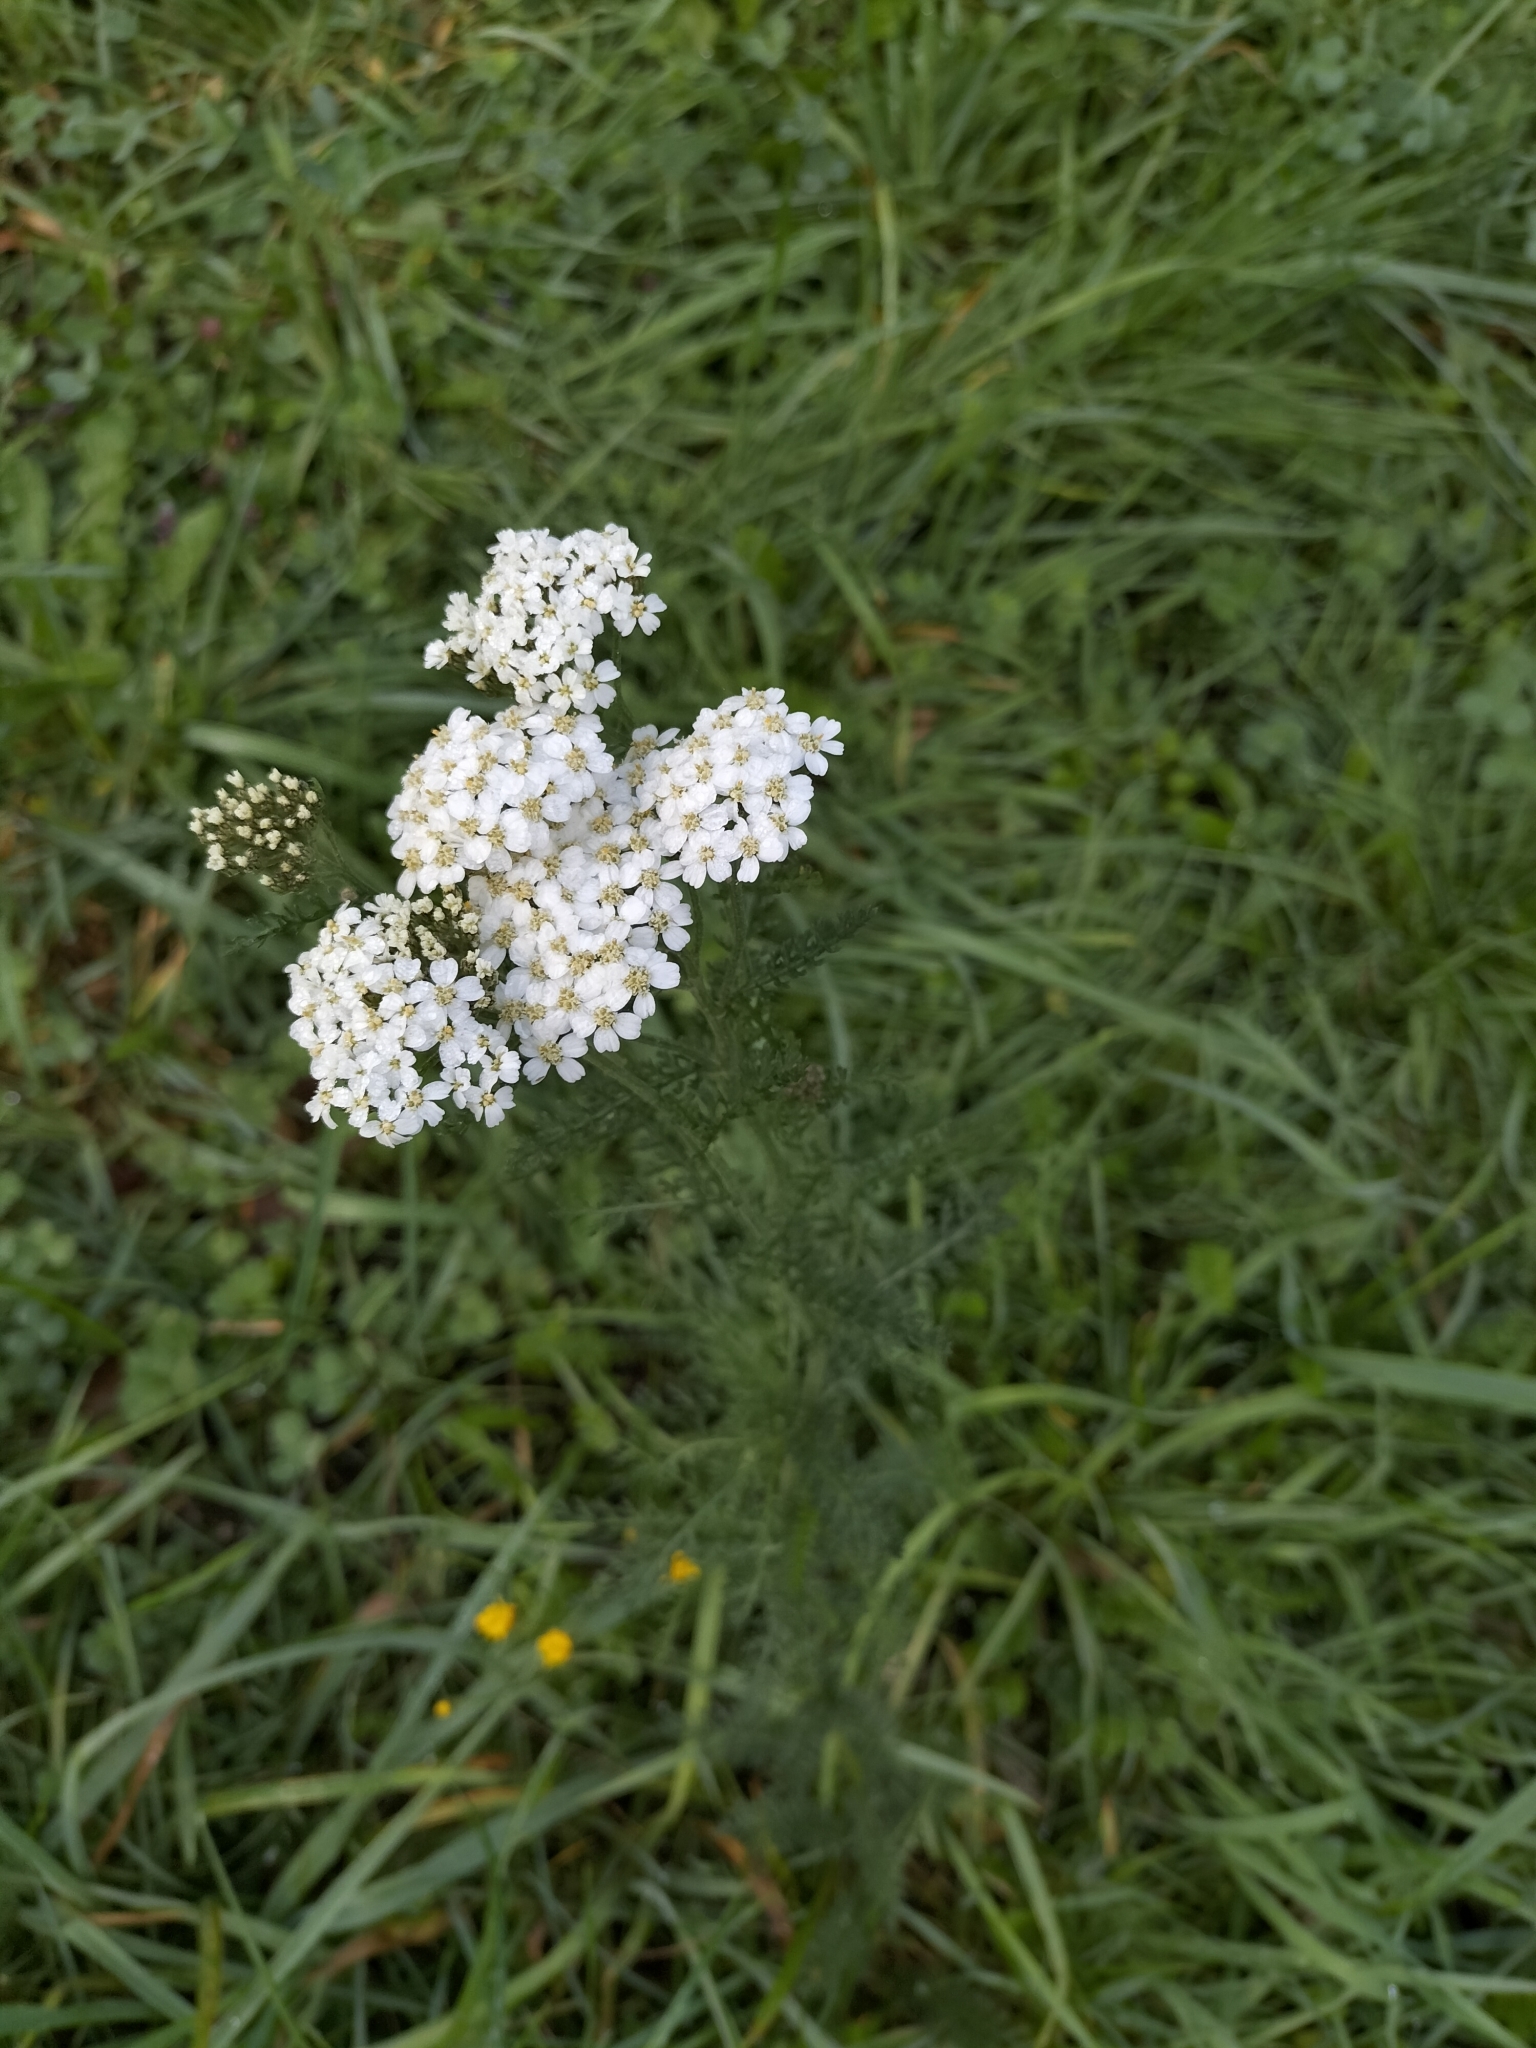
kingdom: Plantae
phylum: Tracheophyta
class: Magnoliopsida
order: Asterales
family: Asteraceae
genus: Achillea
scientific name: Achillea millefolium
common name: Yarrow
